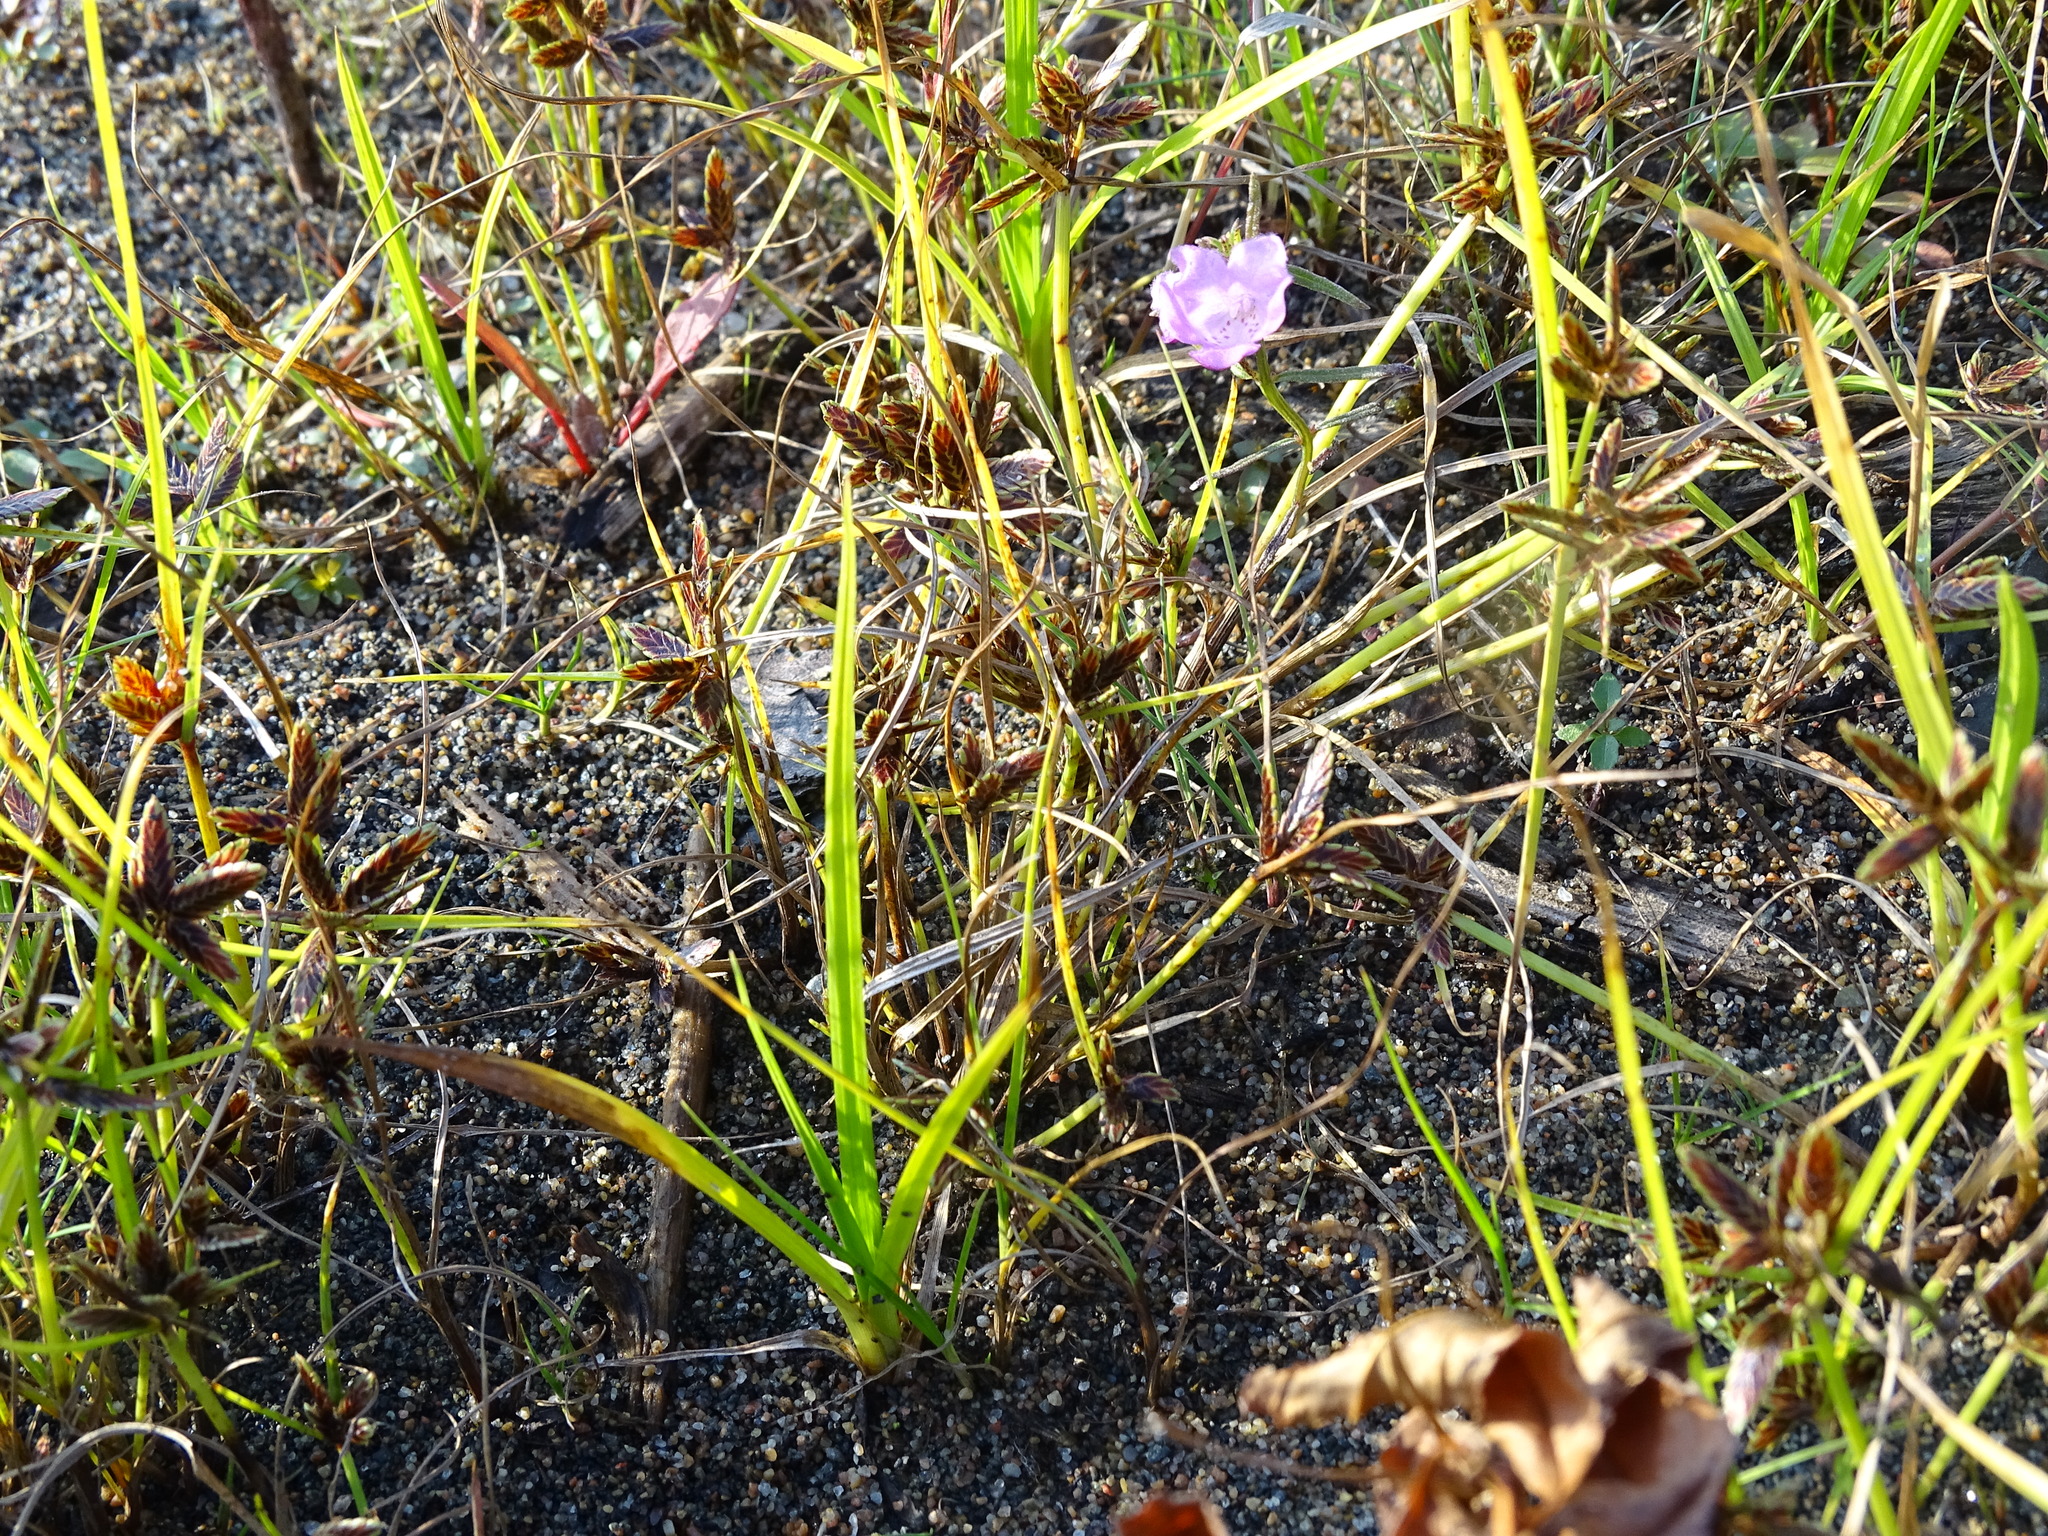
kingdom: Plantae
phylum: Tracheophyta
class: Liliopsida
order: Poales
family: Cyperaceae
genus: Cyperus
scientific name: Cyperus bipartitus
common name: Brook flatsedge
